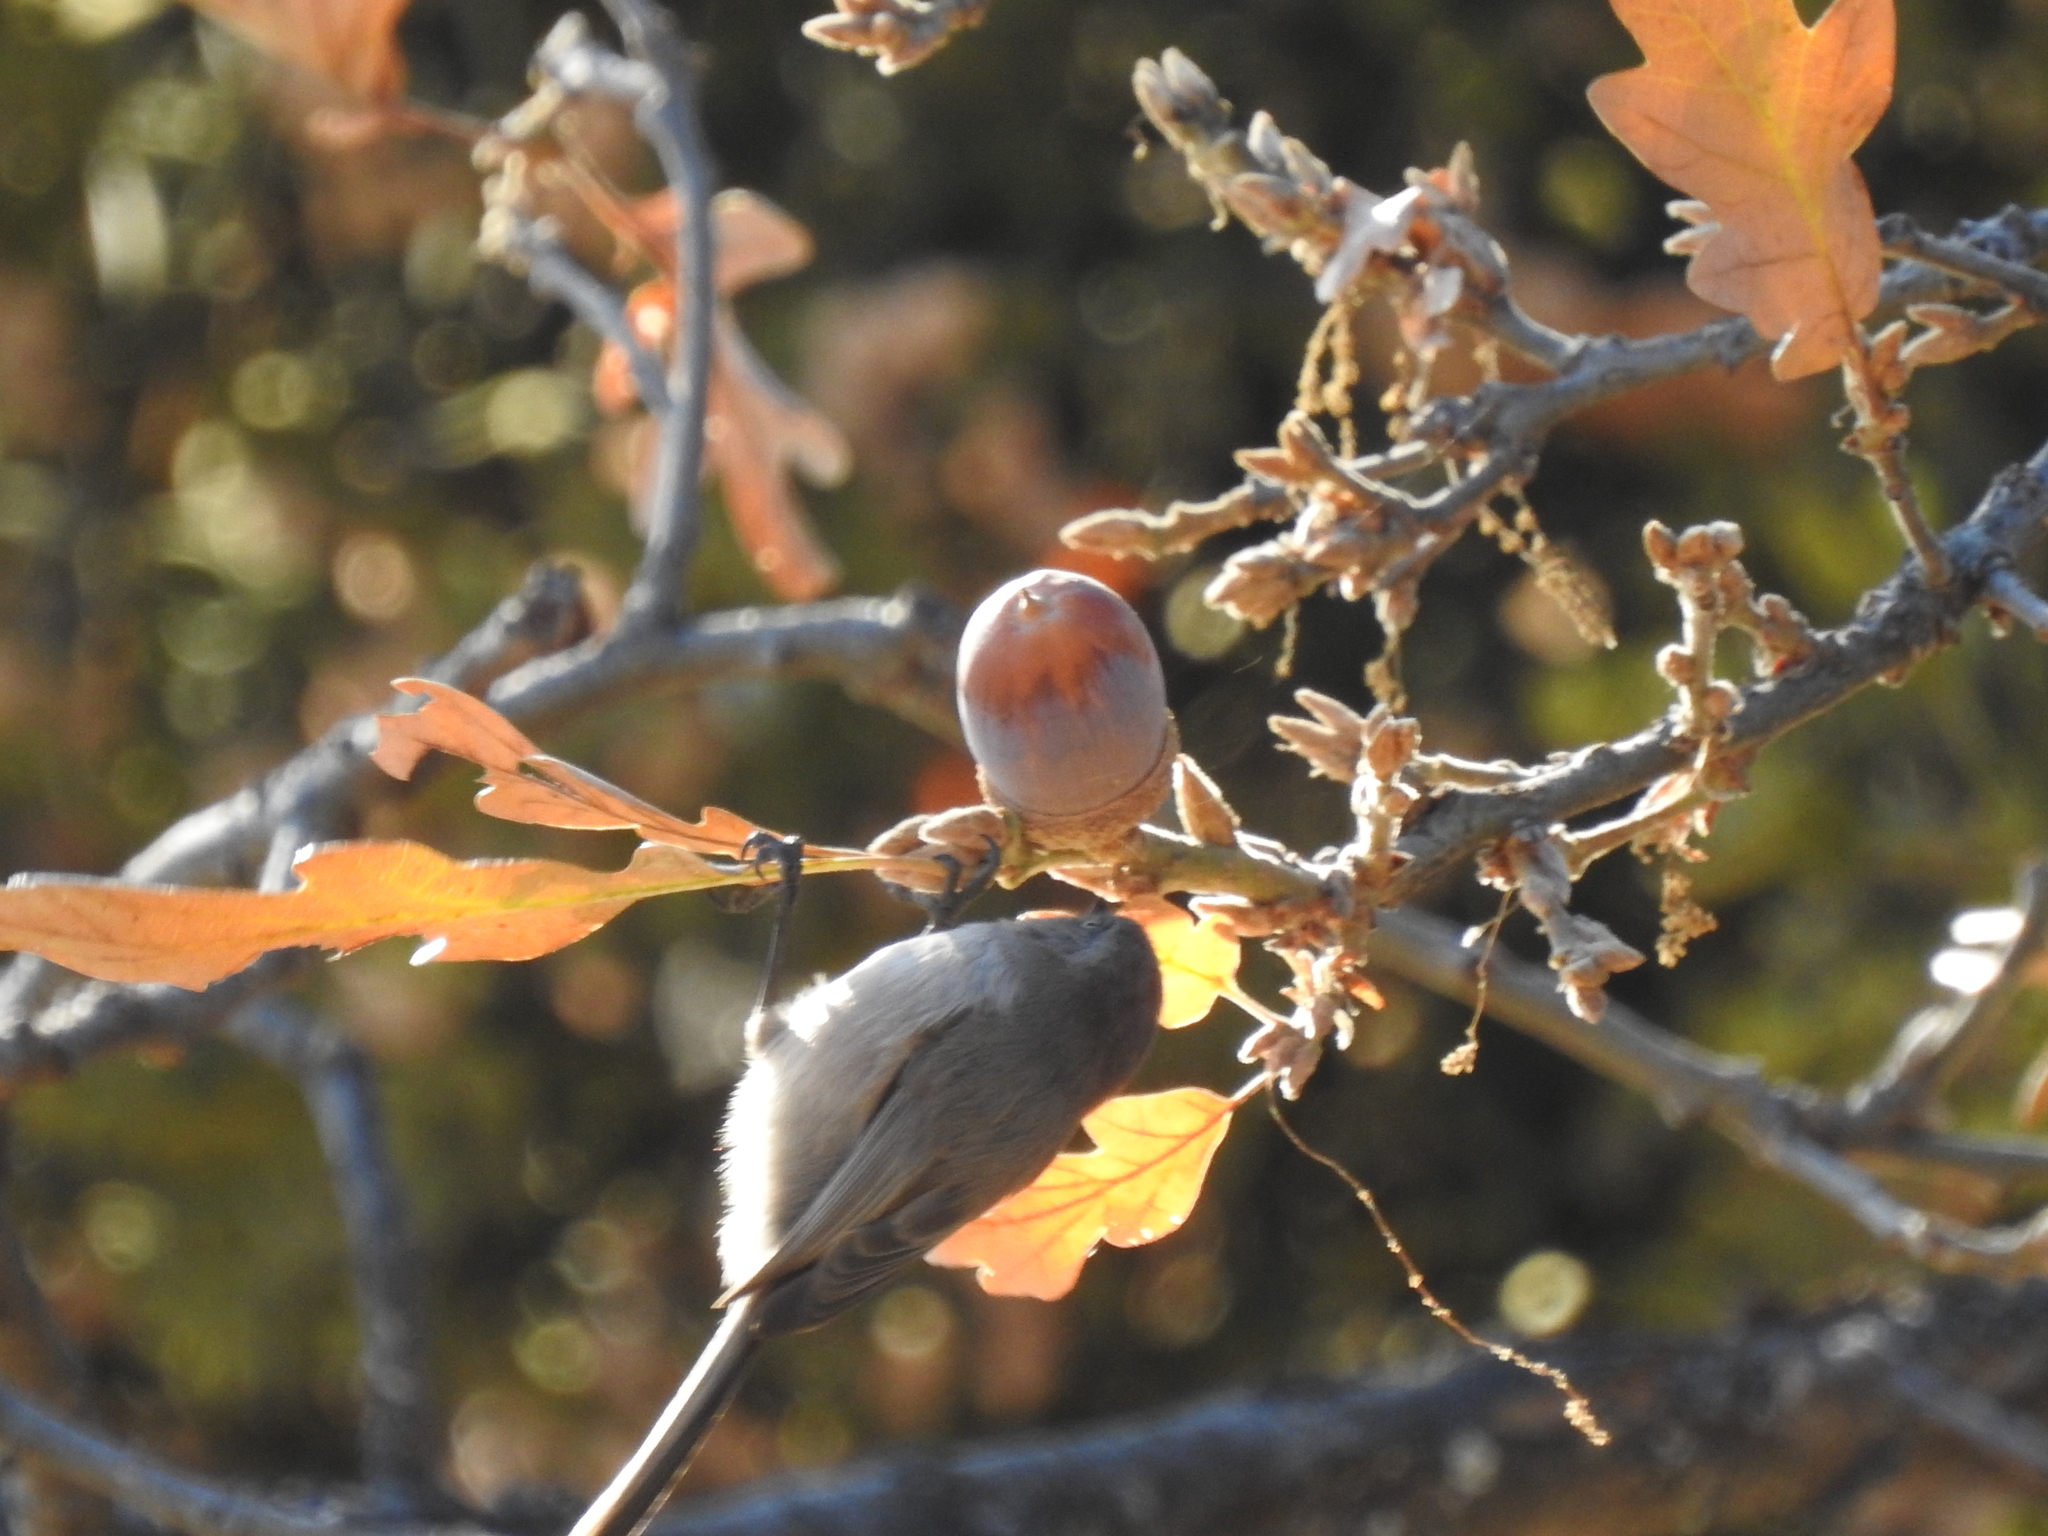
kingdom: Animalia
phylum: Chordata
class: Aves
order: Passeriformes
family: Aegithalidae
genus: Psaltriparus
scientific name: Psaltriparus minimus
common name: American bushtit
